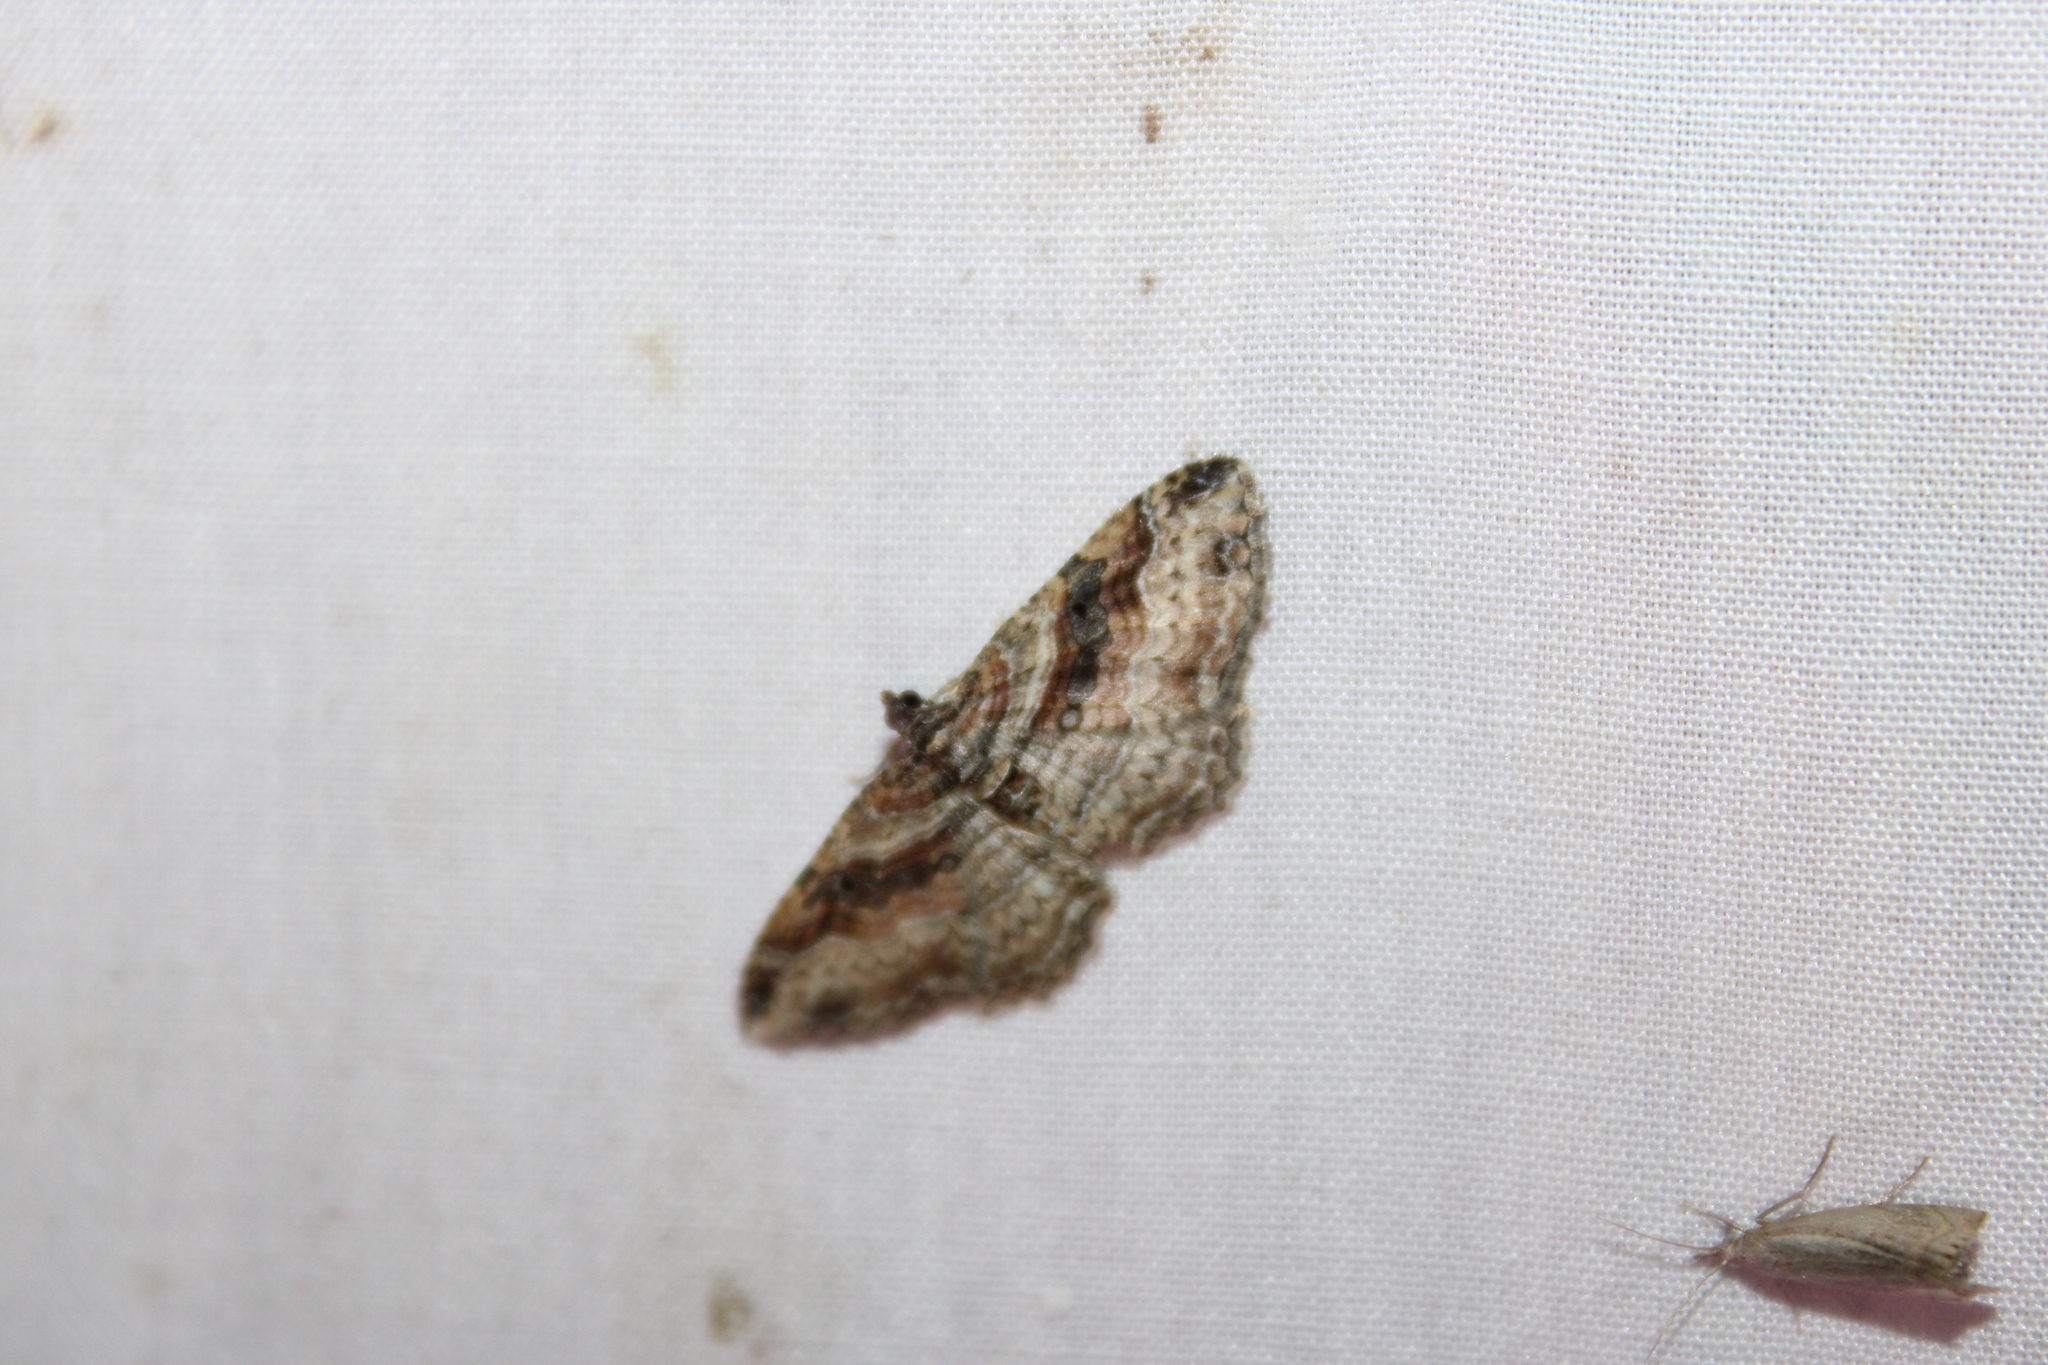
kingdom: Animalia
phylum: Arthropoda
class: Insecta
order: Lepidoptera
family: Geometridae
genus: Costaconvexa
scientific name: Costaconvexa centrostrigaria
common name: Bent-line carpet
